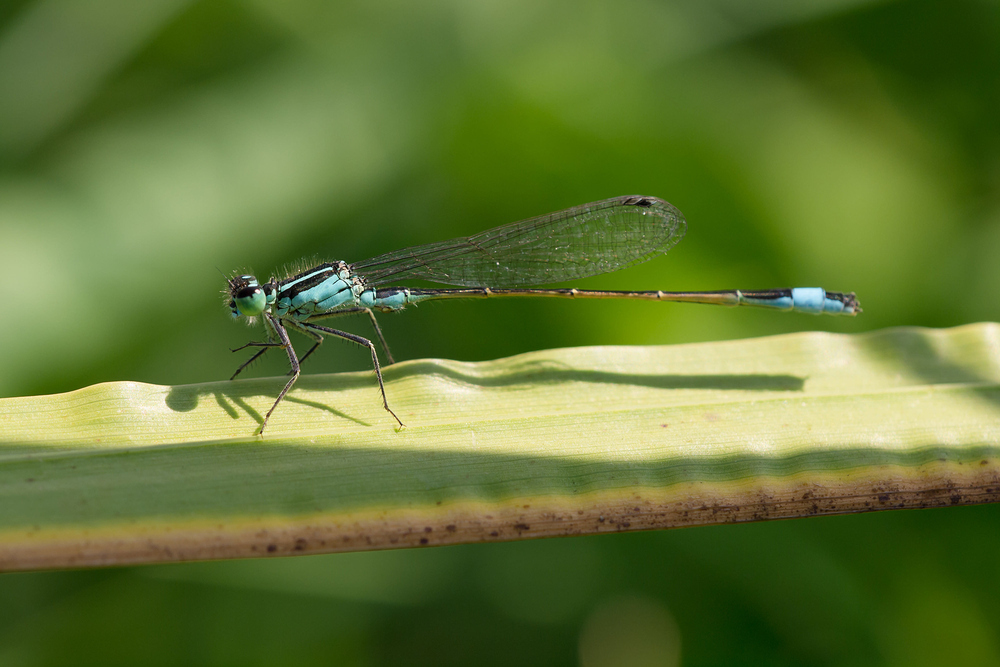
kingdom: Animalia
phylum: Arthropoda
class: Insecta
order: Odonata
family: Coenagrionidae
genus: Ischnura
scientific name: Ischnura elegans
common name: Blue-tailed damselfly
